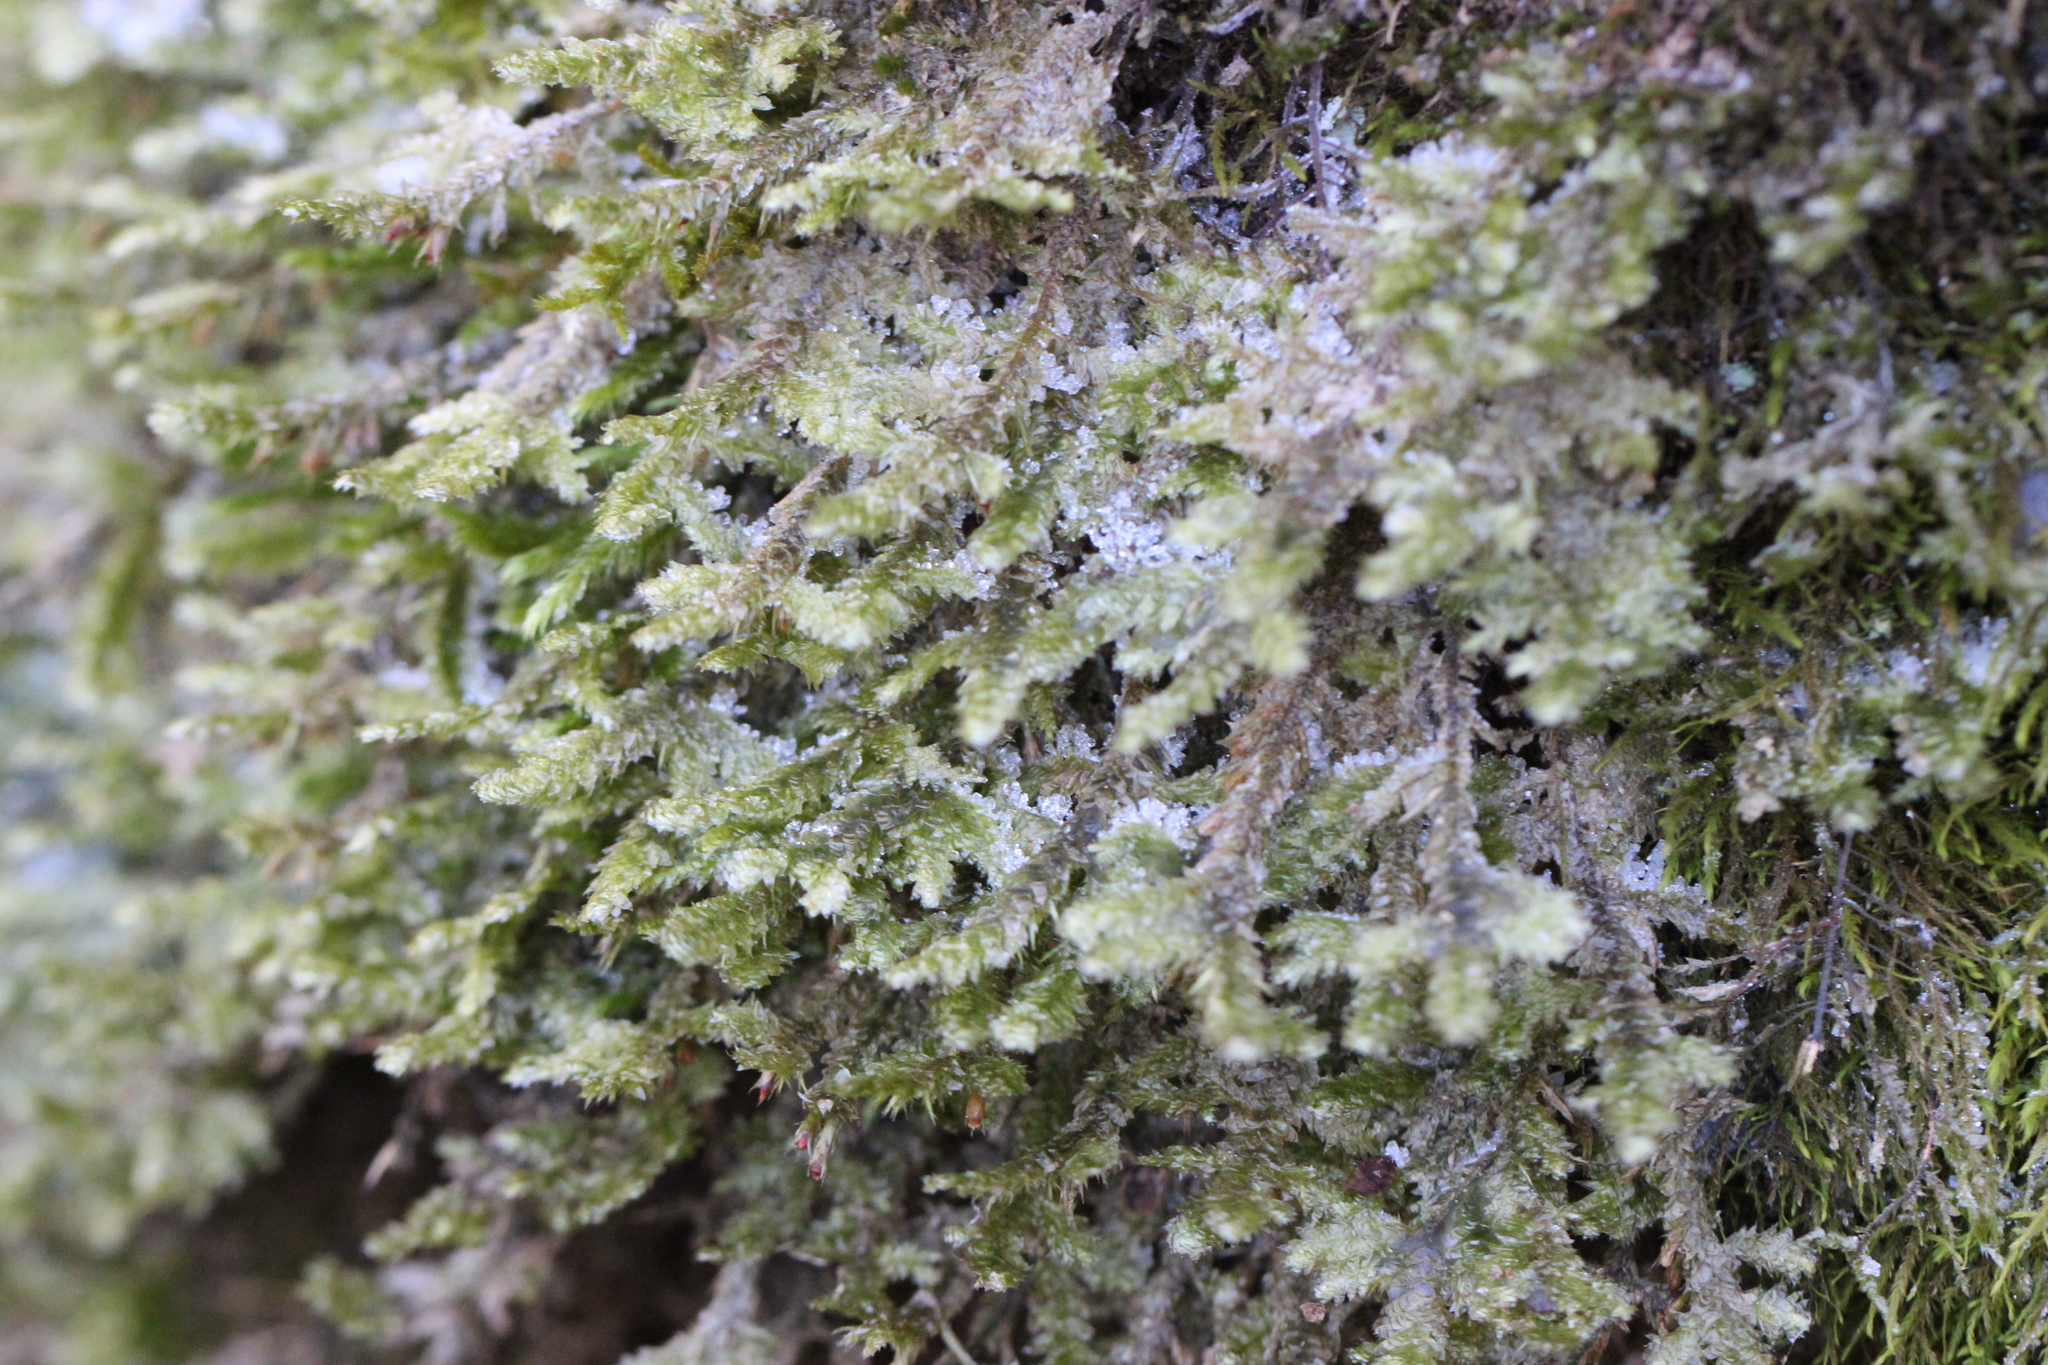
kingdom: Plantae
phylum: Bryophyta
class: Bryopsida
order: Hypnales
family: Neckeraceae
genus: Neckera
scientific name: Neckera pennata
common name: Feathery neckera
